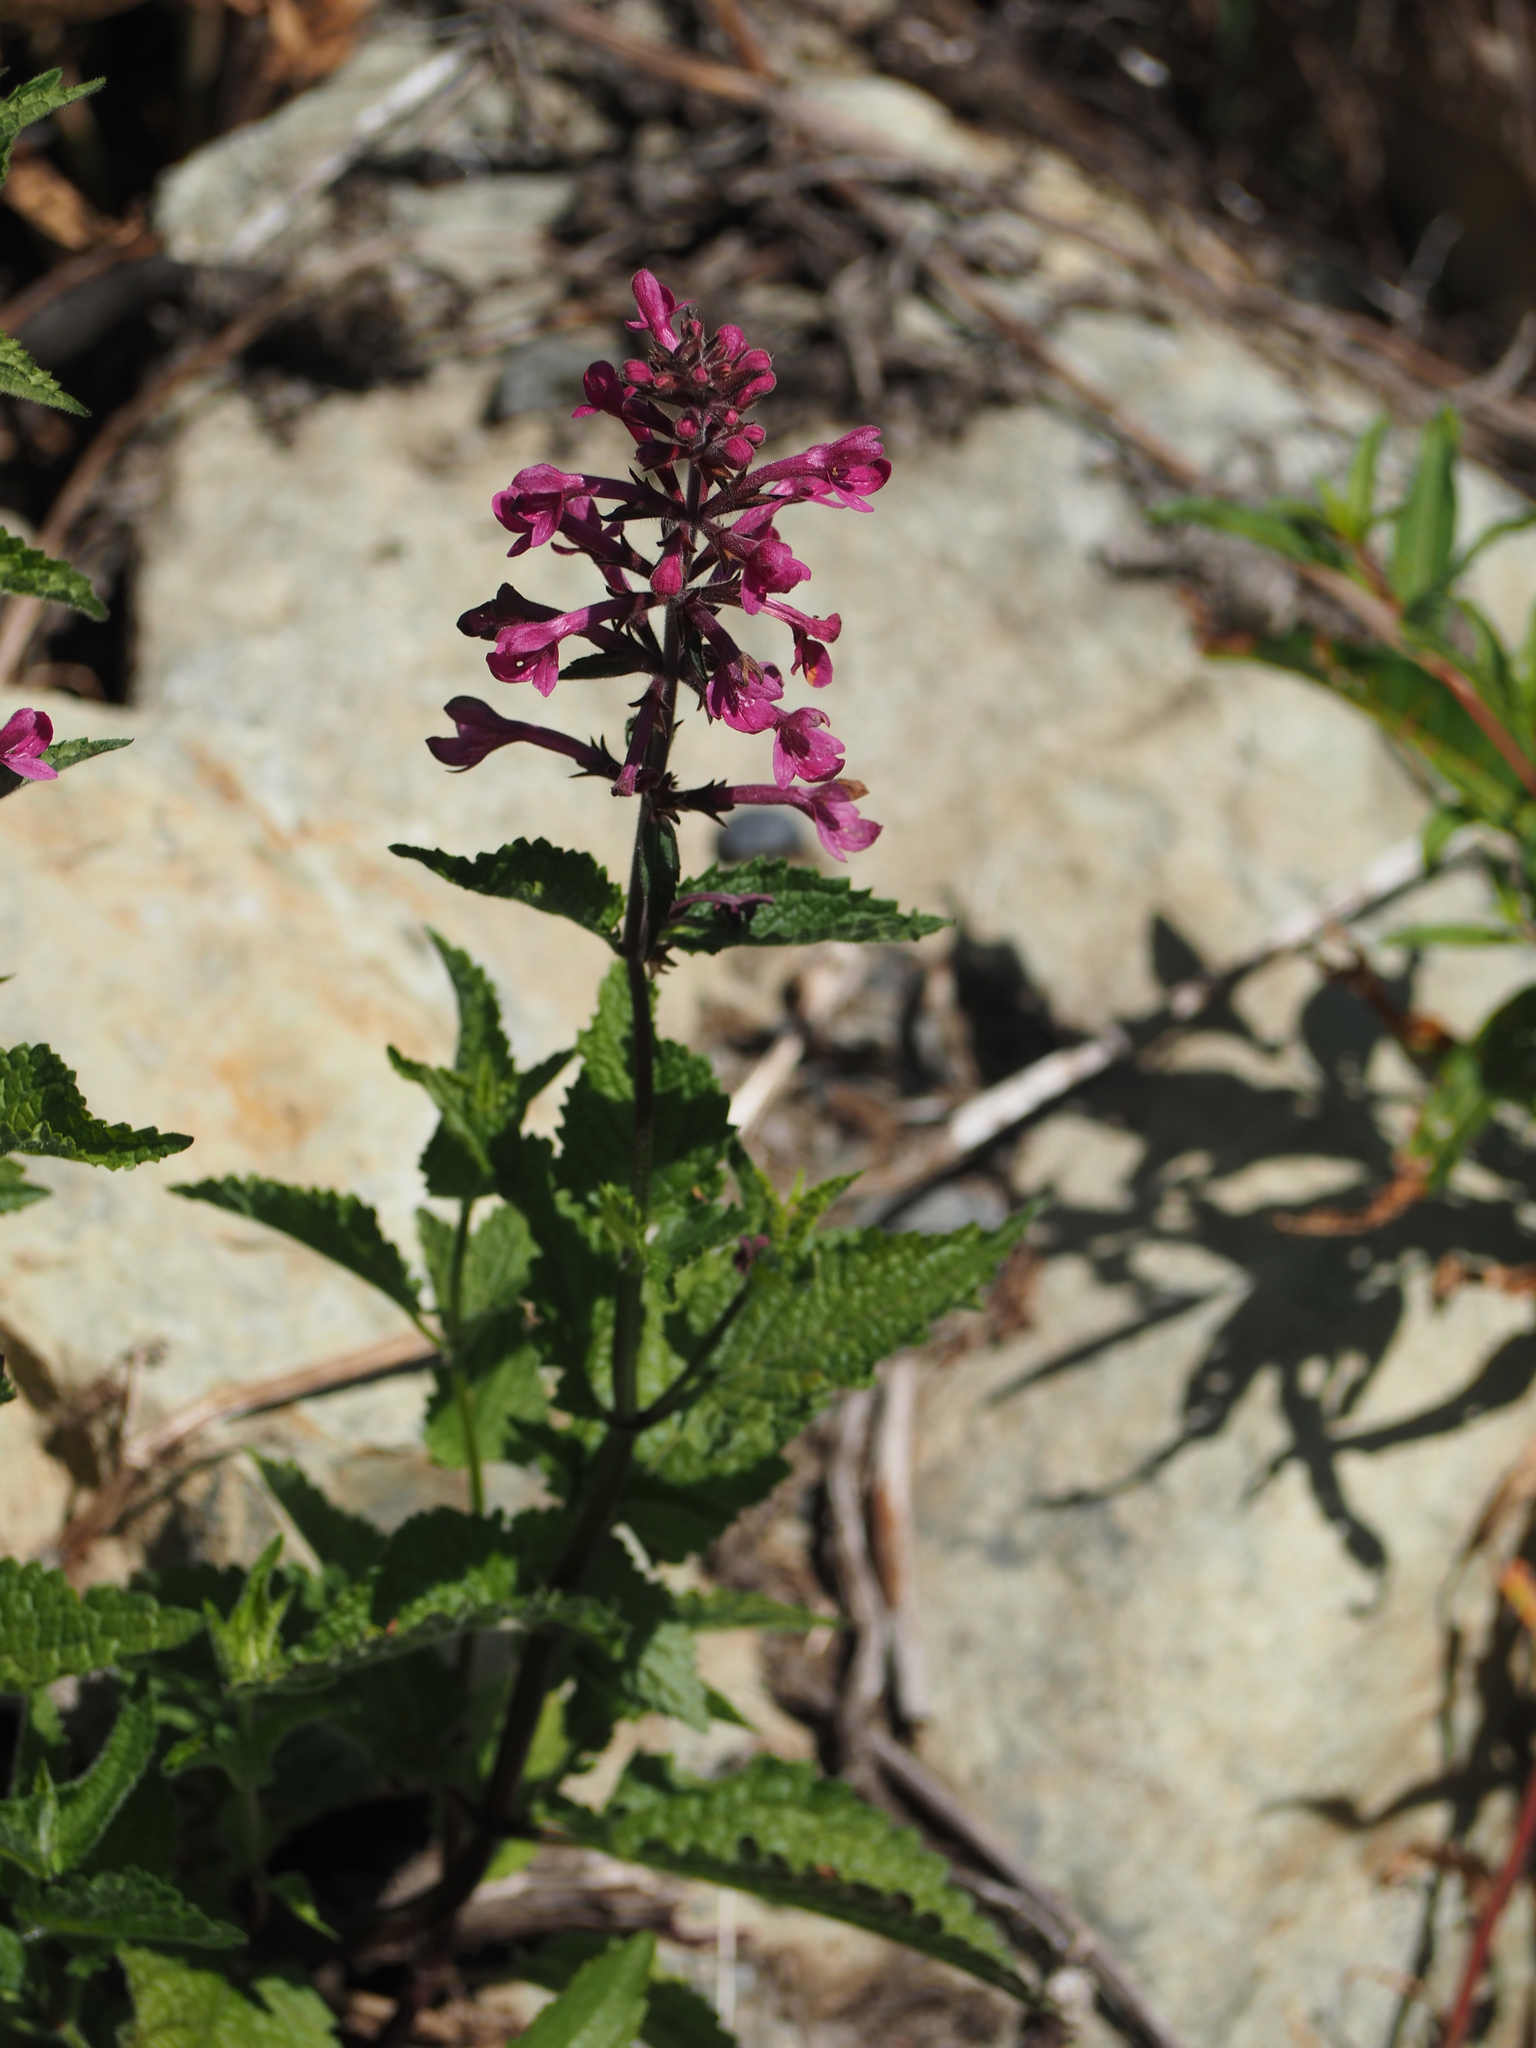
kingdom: Plantae
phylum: Tracheophyta
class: Magnoliopsida
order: Lamiales
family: Lamiaceae
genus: Stachys
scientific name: Stachys chamissonis
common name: Coastal hedge-nettle
